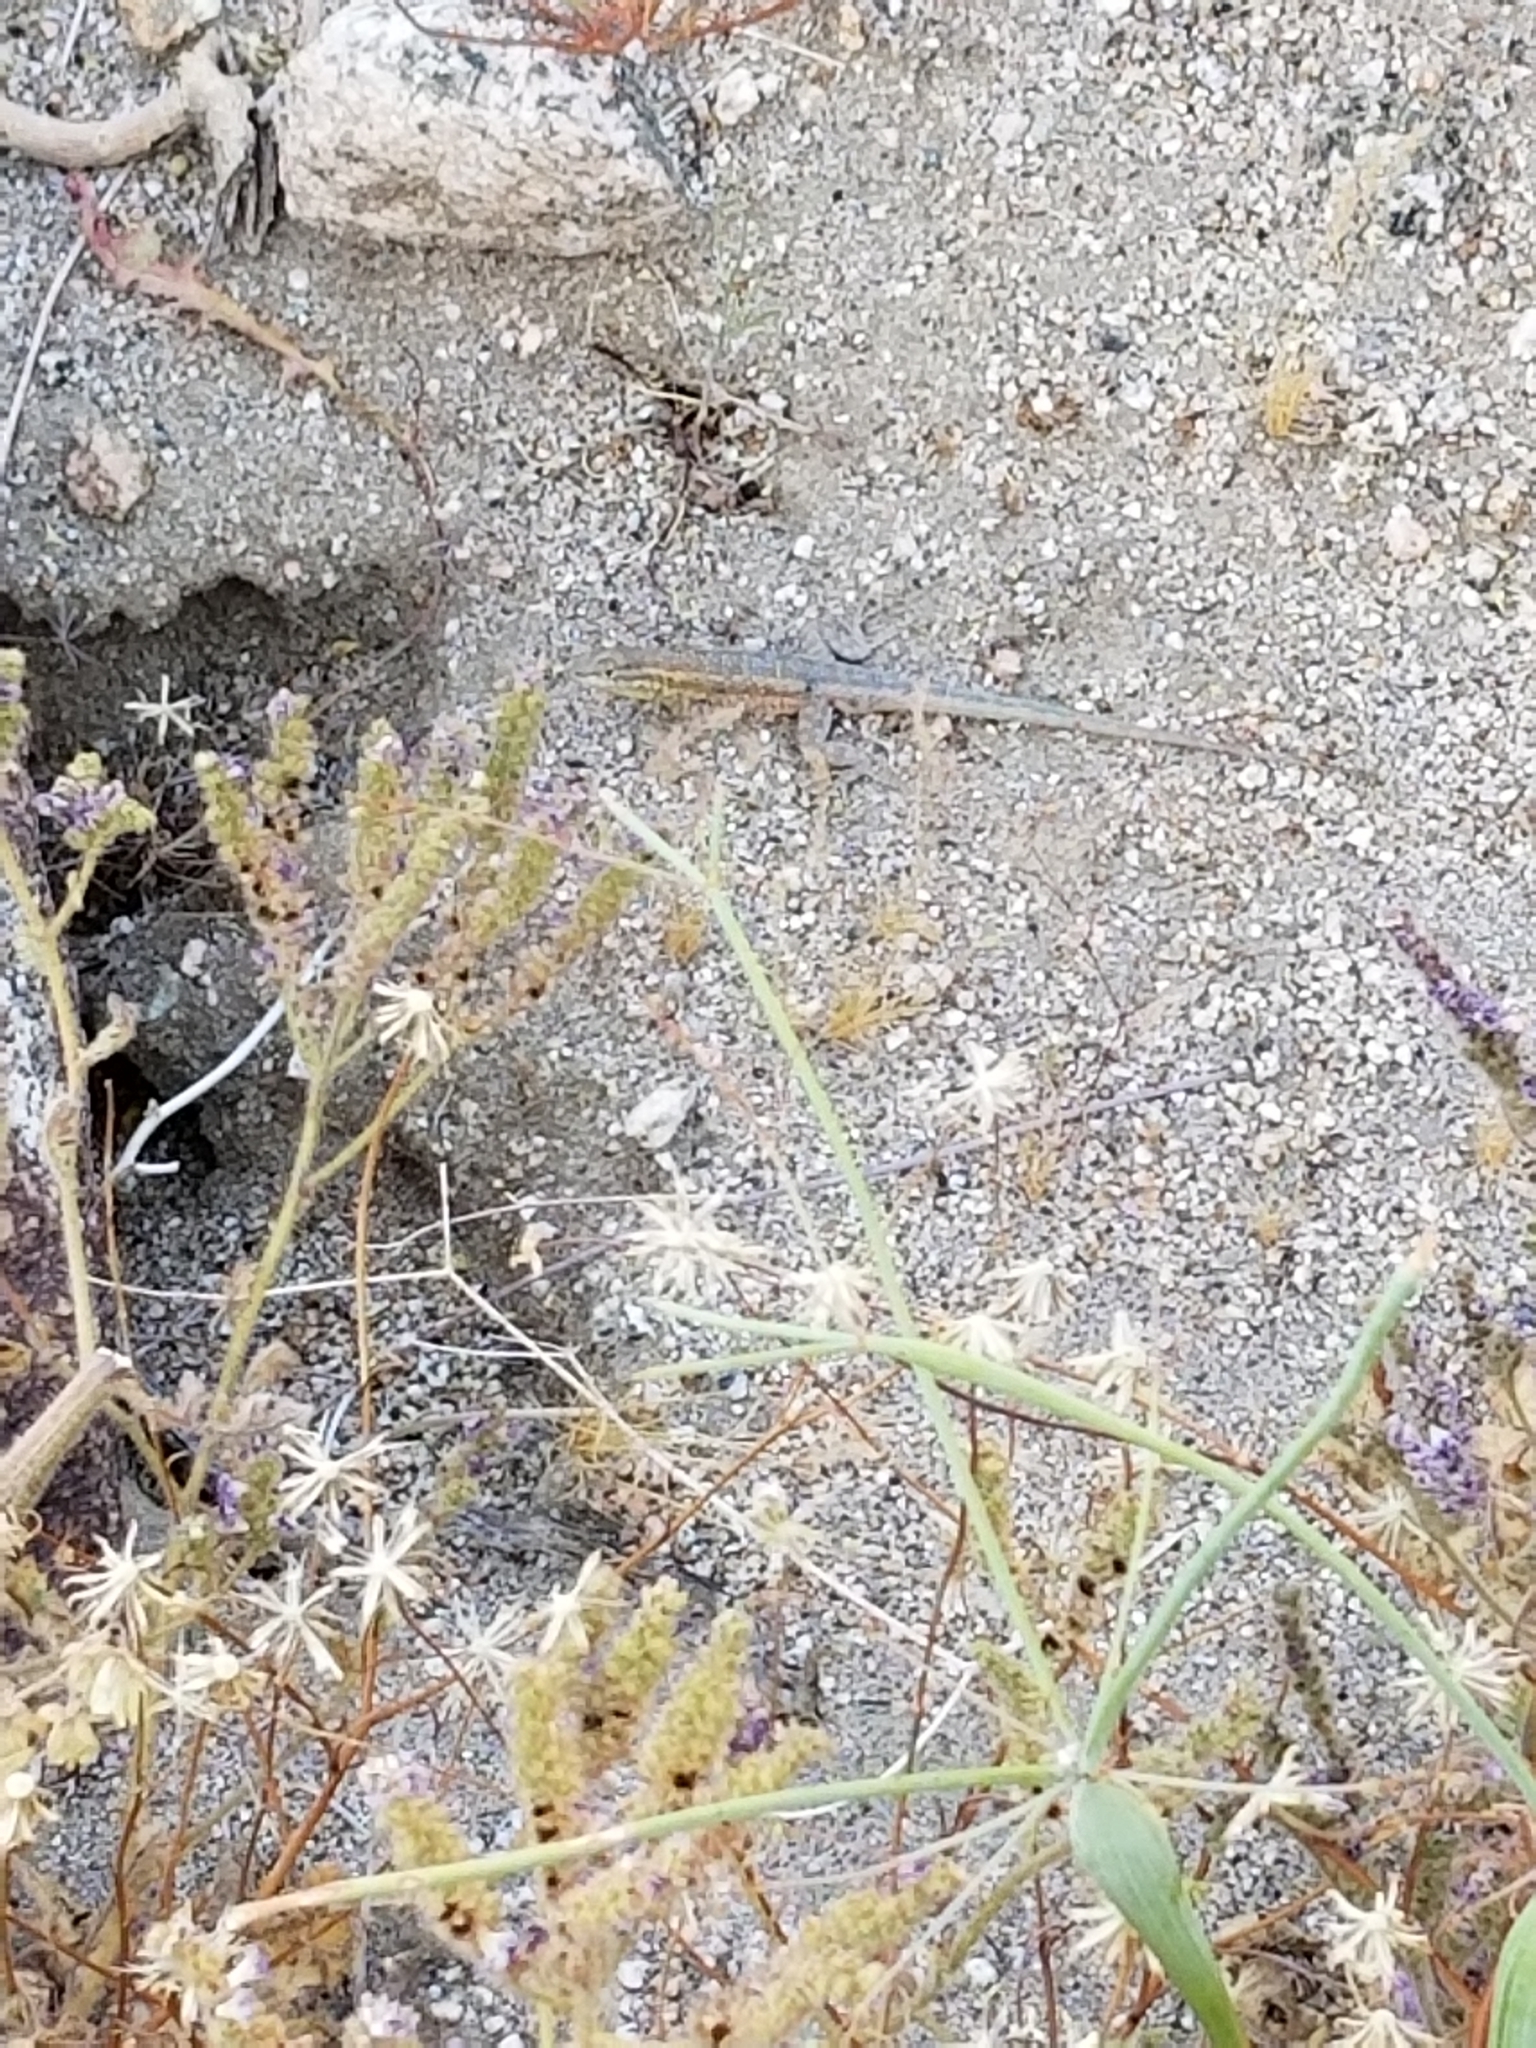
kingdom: Animalia
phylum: Chordata
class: Squamata
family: Phrynosomatidae
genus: Uta
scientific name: Uta stansburiana
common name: Side-blotched lizard
